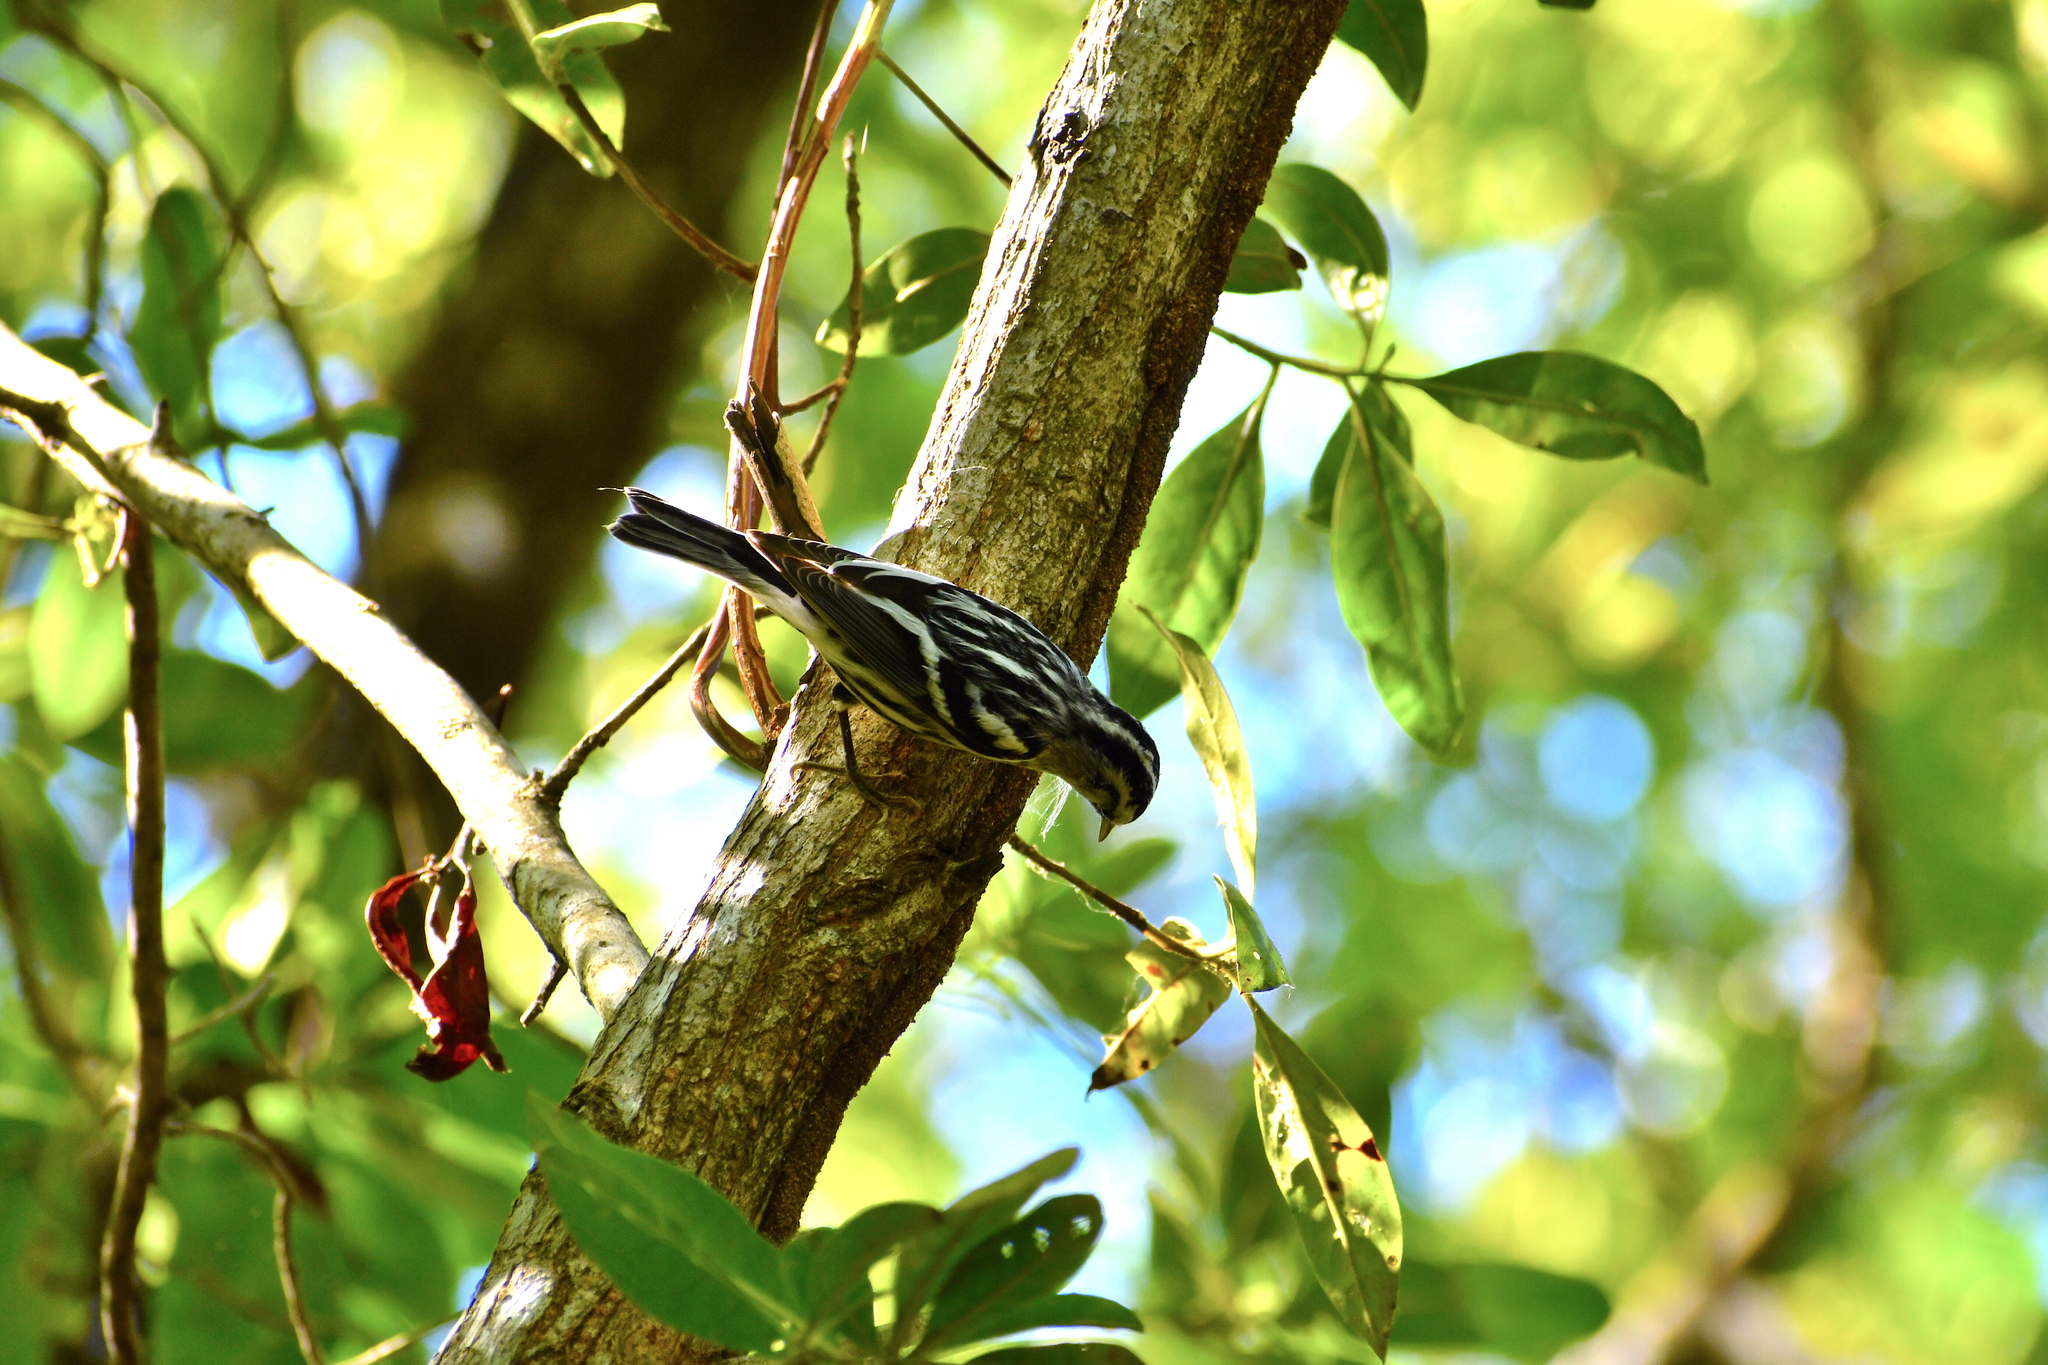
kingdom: Animalia
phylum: Chordata
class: Aves
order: Passeriformes
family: Parulidae
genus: Mniotilta
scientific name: Mniotilta varia
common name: Black-and-white warbler
